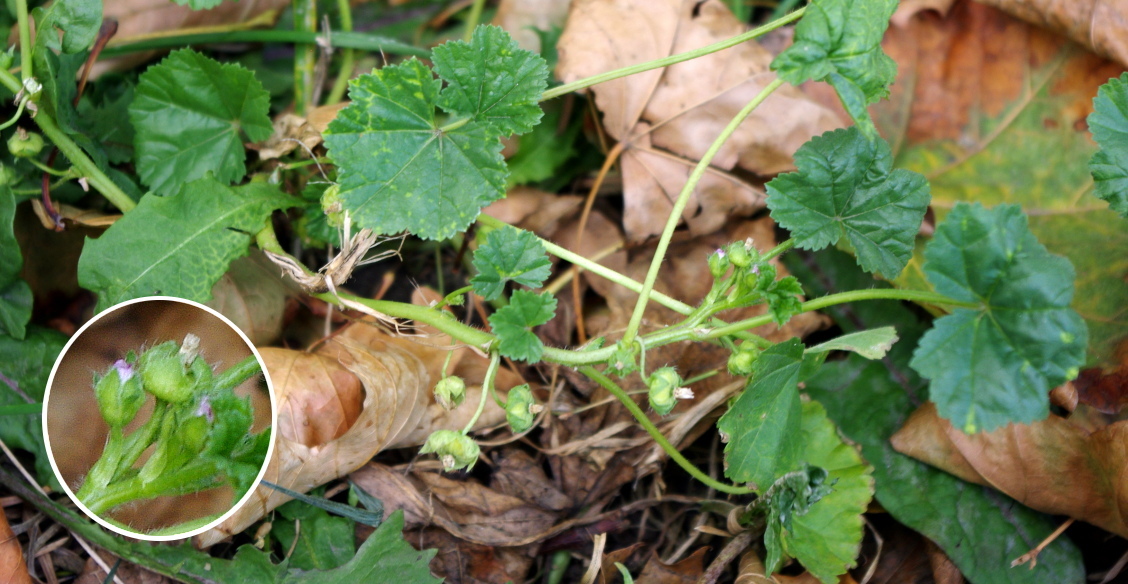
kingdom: Plantae
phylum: Tracheophyta
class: Magnoliopsida
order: Malvales
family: Malvaceae
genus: Malva
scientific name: Malva pusilla
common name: Small mallow
